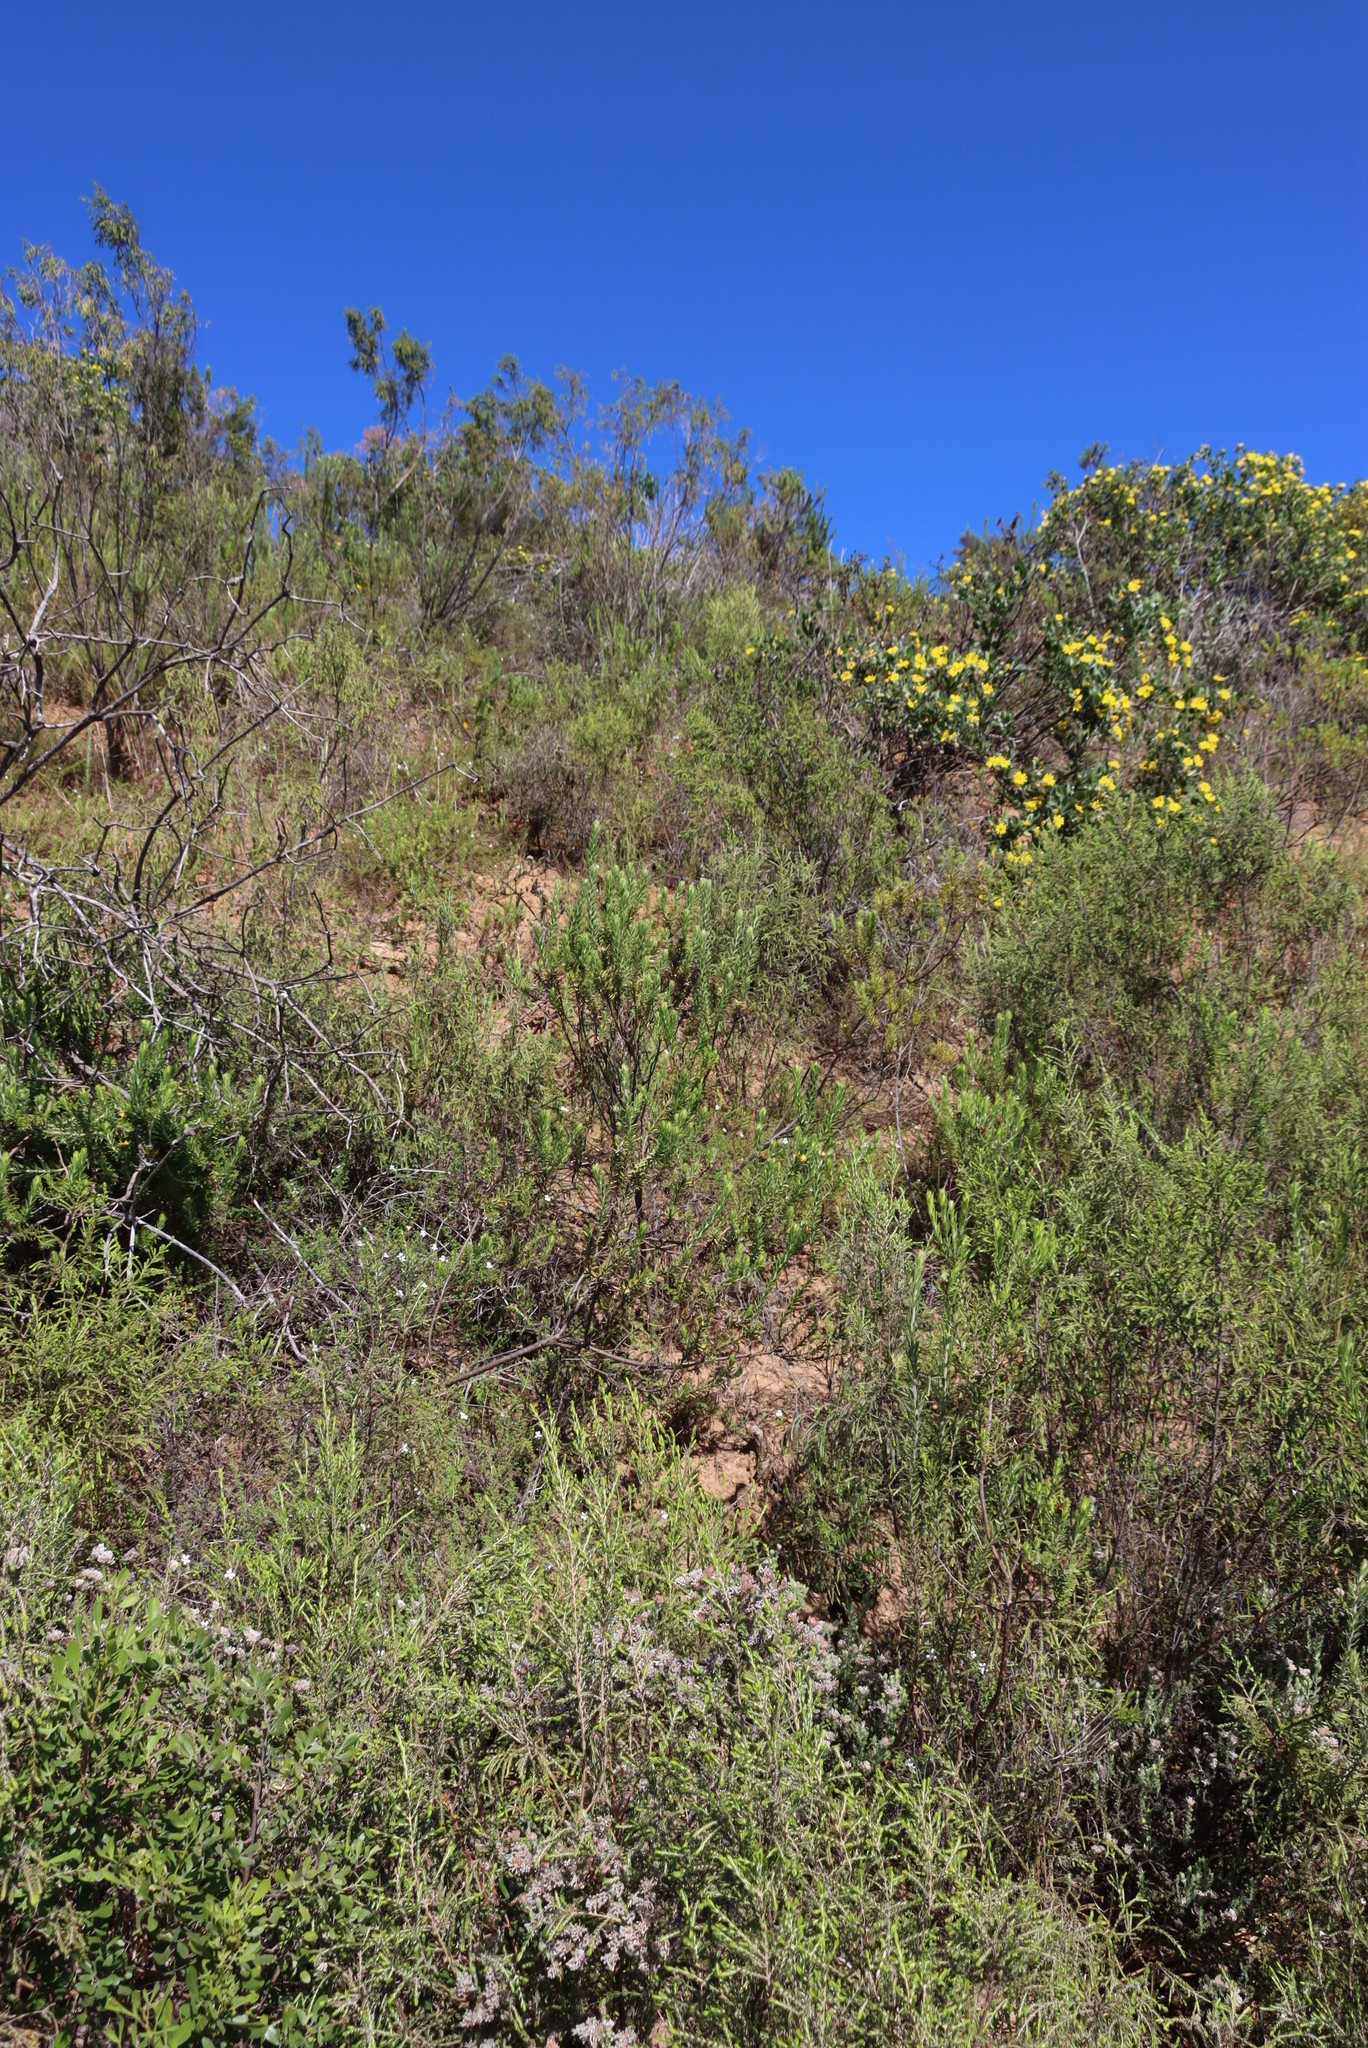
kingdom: Plantae
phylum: Tracheophyta
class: Magnoliopsida
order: Asterales
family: Asteraceae
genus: Oedera
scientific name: Oedera calycina
